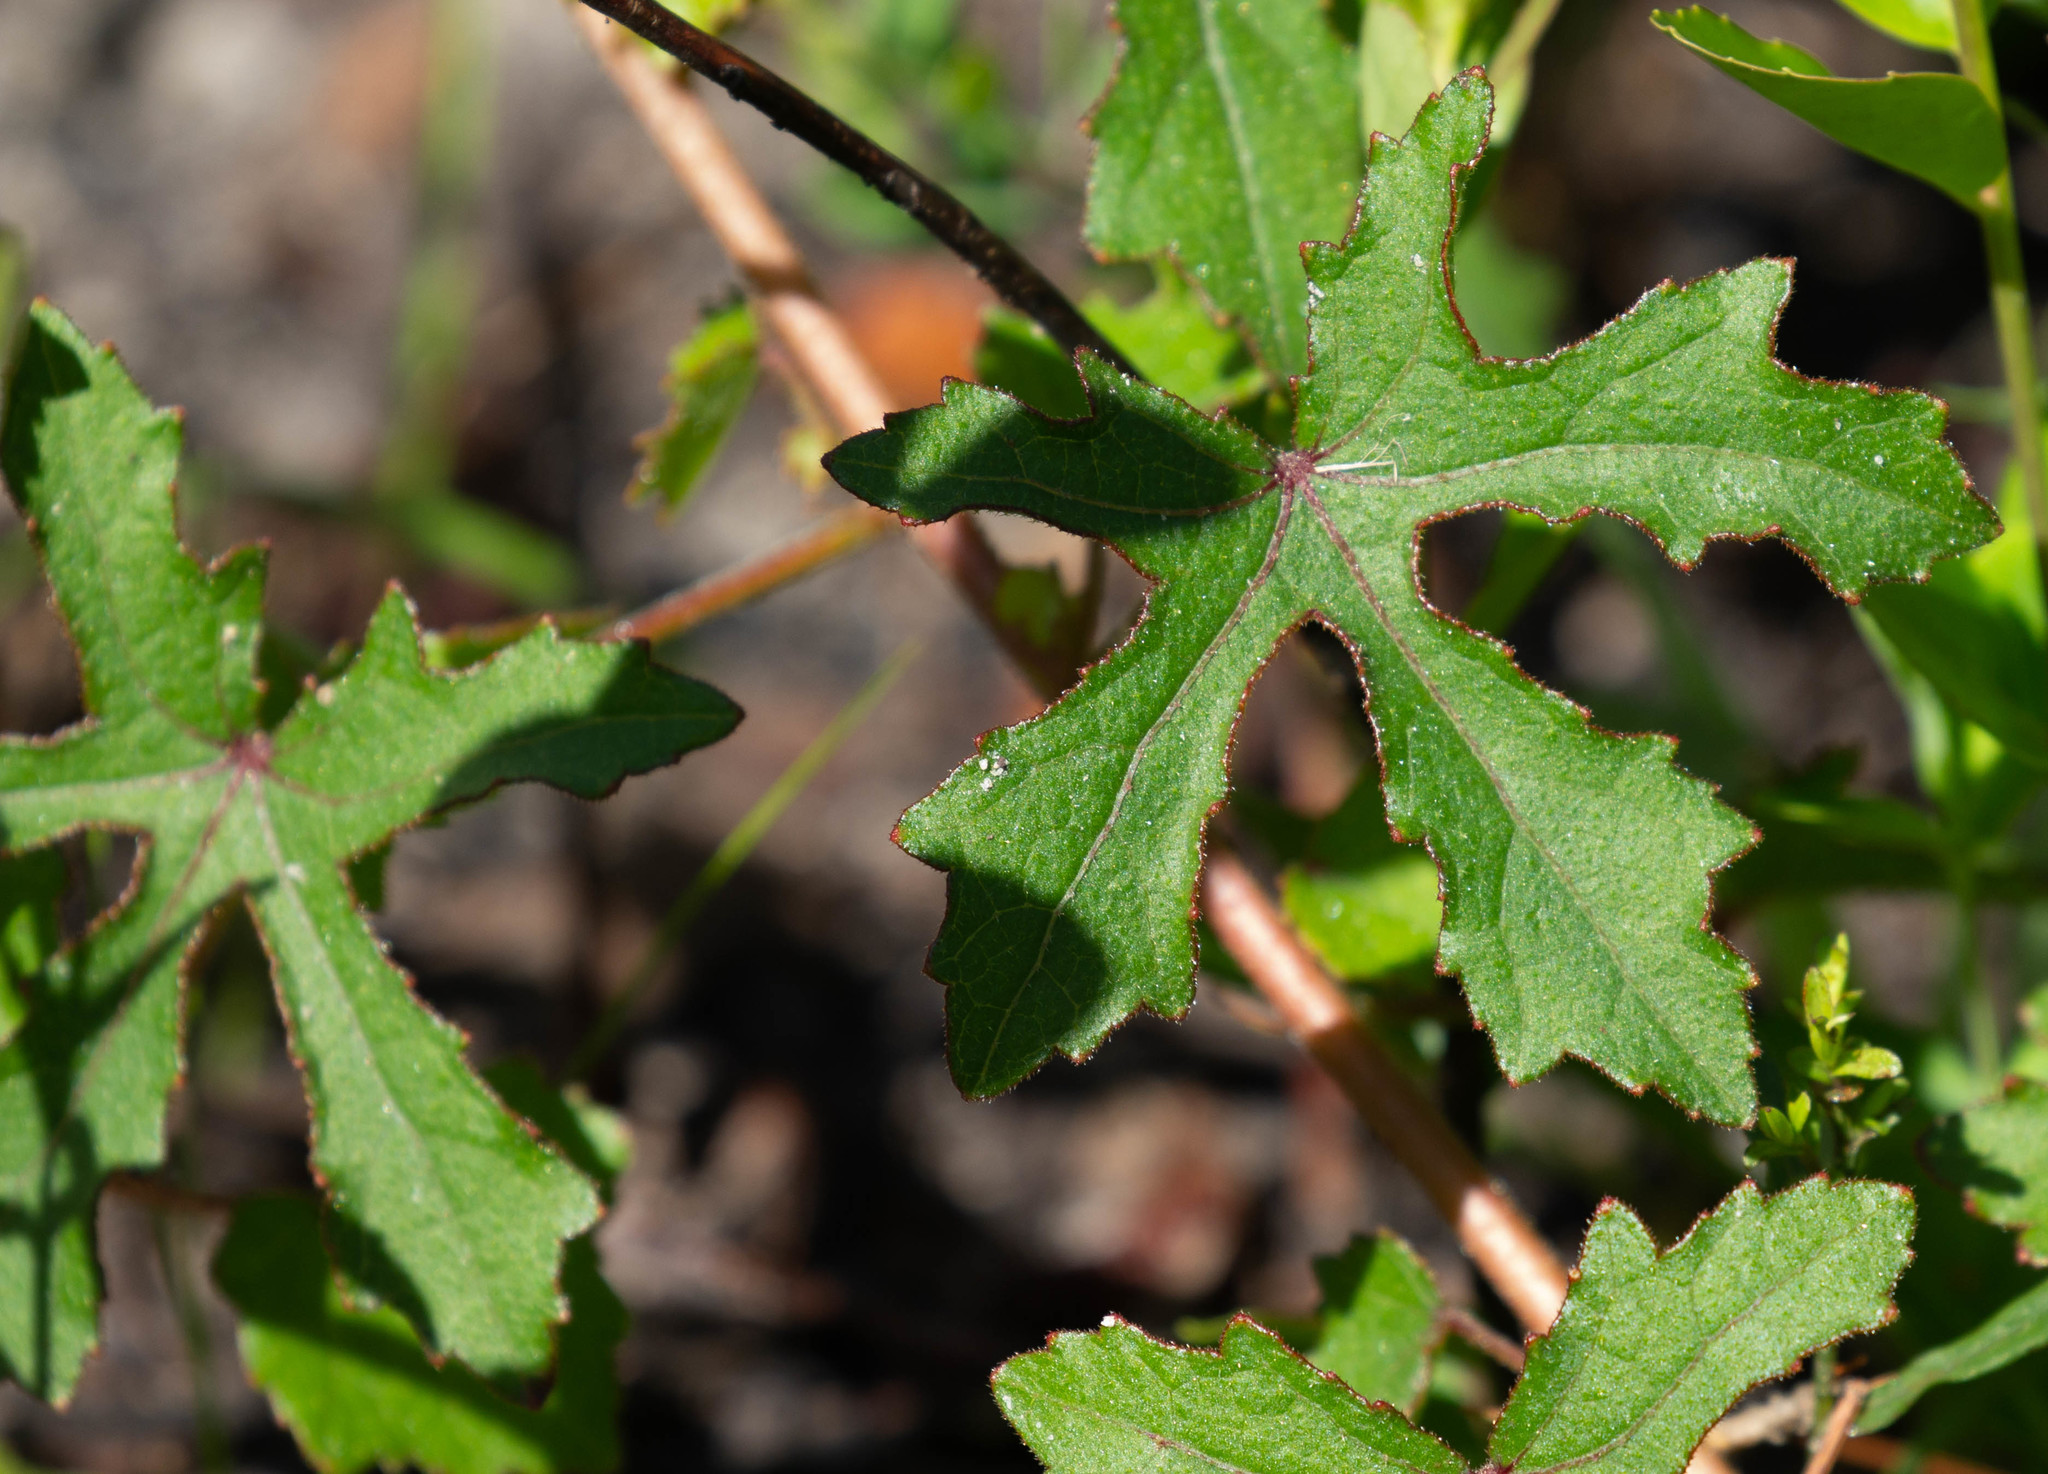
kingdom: Plantae
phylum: Tracheophyta
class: Magnoliopsida
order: Malvales
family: Malvaceae
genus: Hibiscus
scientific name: Hibiscus aculeatus
